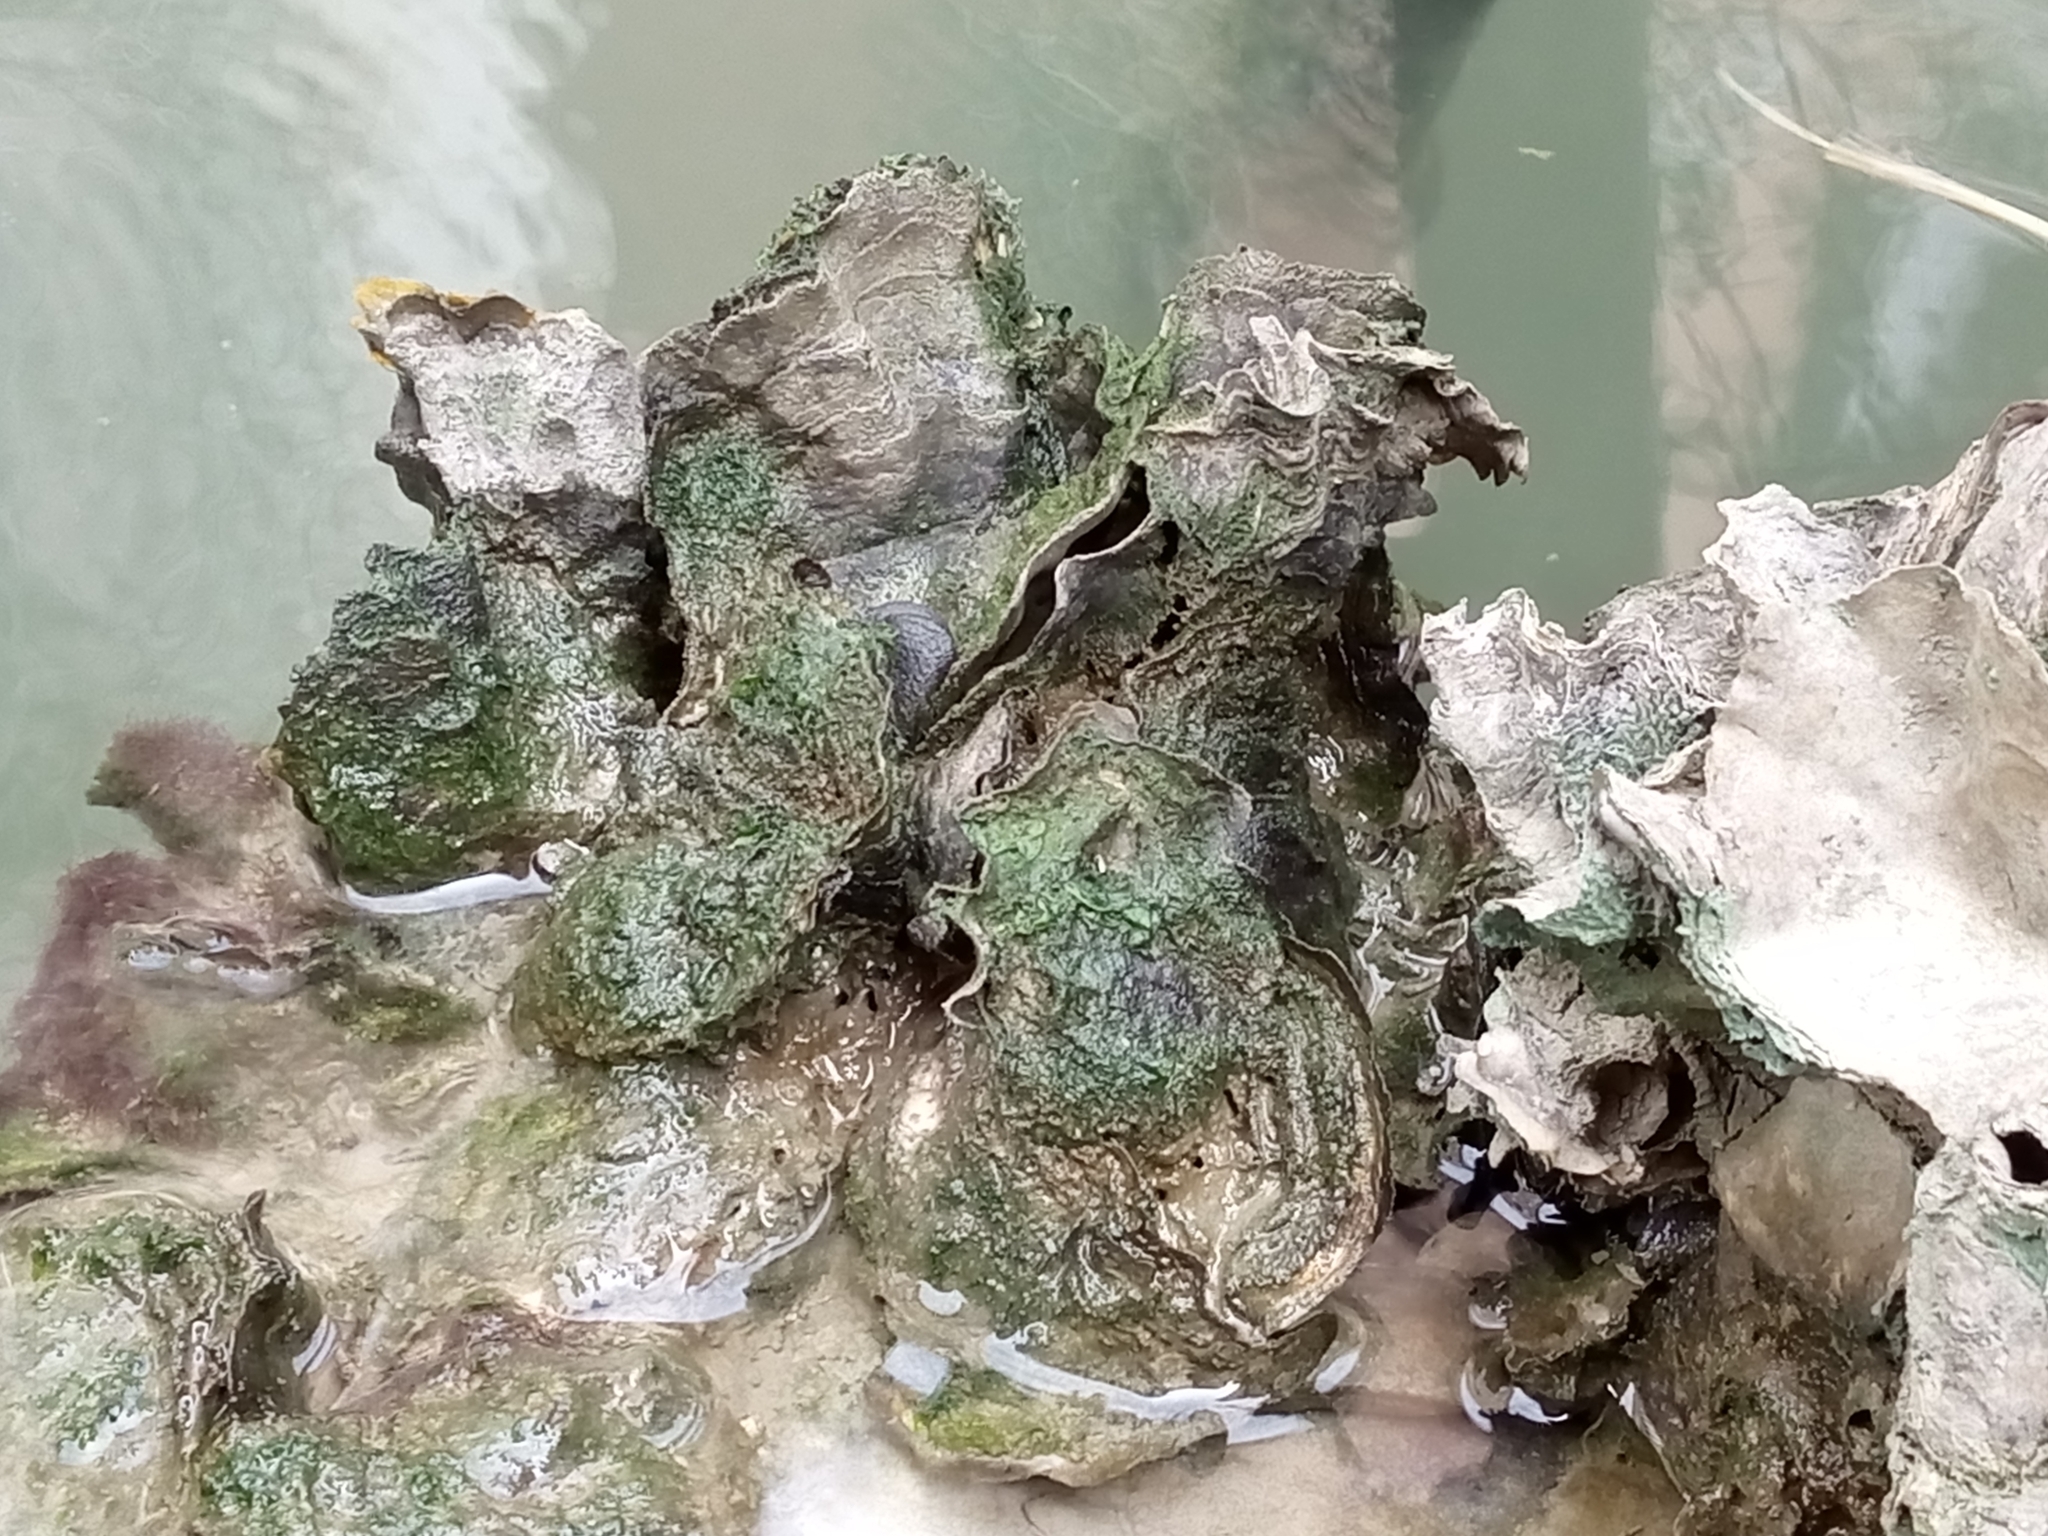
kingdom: Animalia
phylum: Mollusca
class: Bivalvia
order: Ostreida
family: Ostreidae
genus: Magallana
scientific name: Magallana gigas
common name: Pacific oyster
